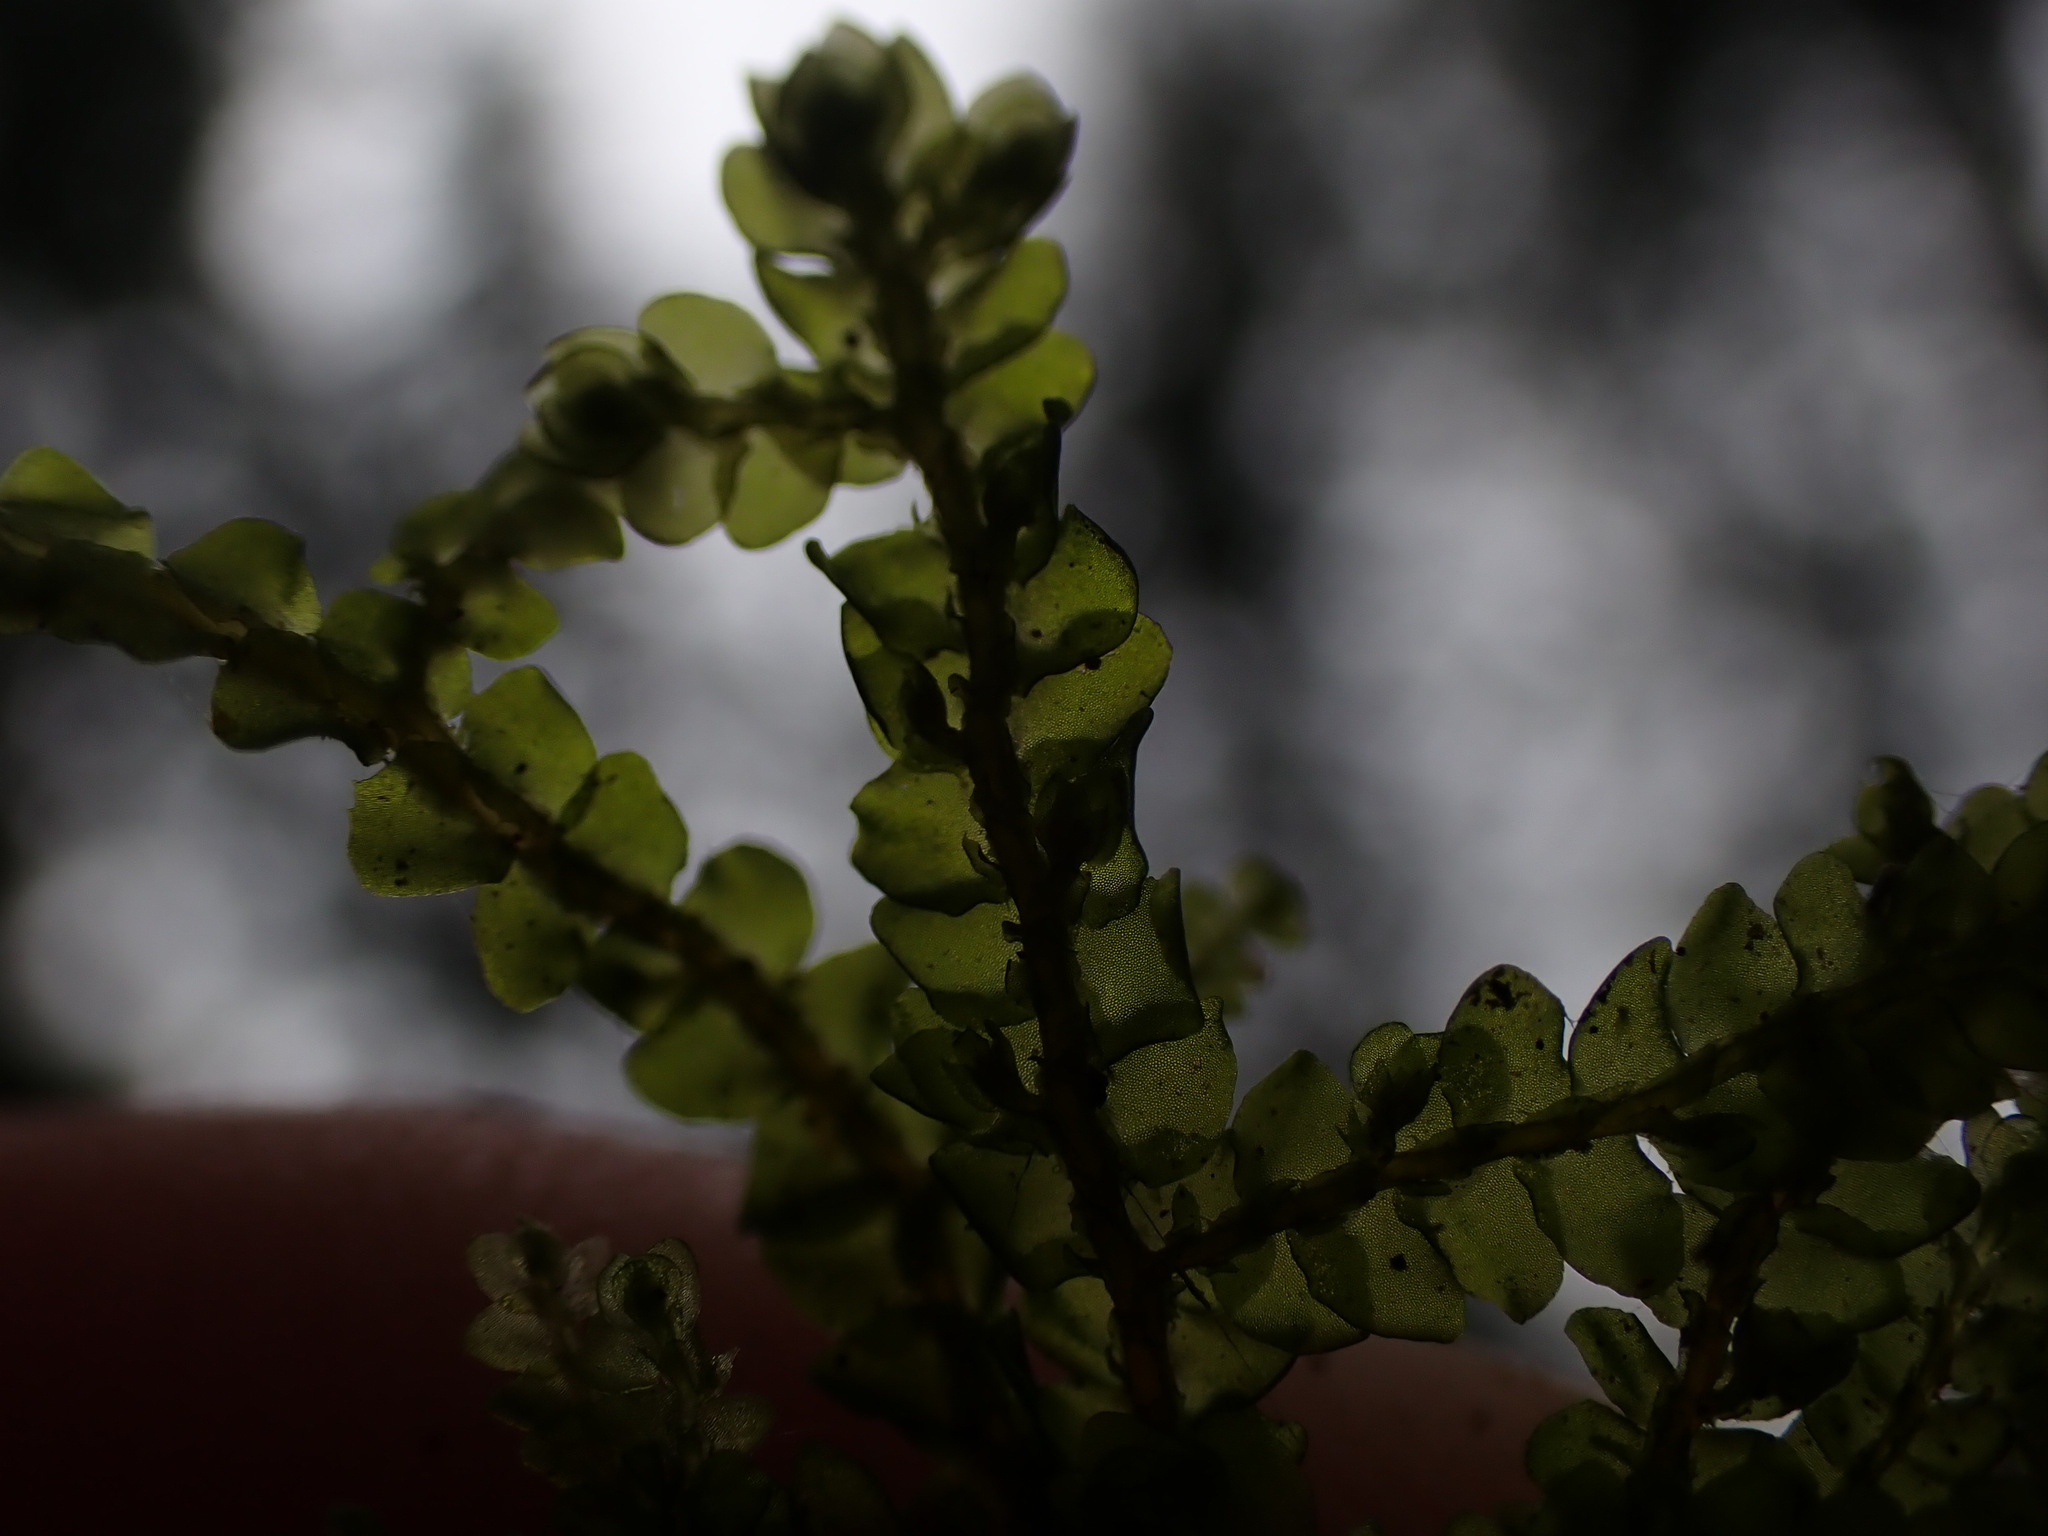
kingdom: Plantae
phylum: Marchantiophyta
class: Jungermanniopsida
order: Porellales
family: Porellaceae
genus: Porella
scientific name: Porella cordaeana
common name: Cliff scalewort
